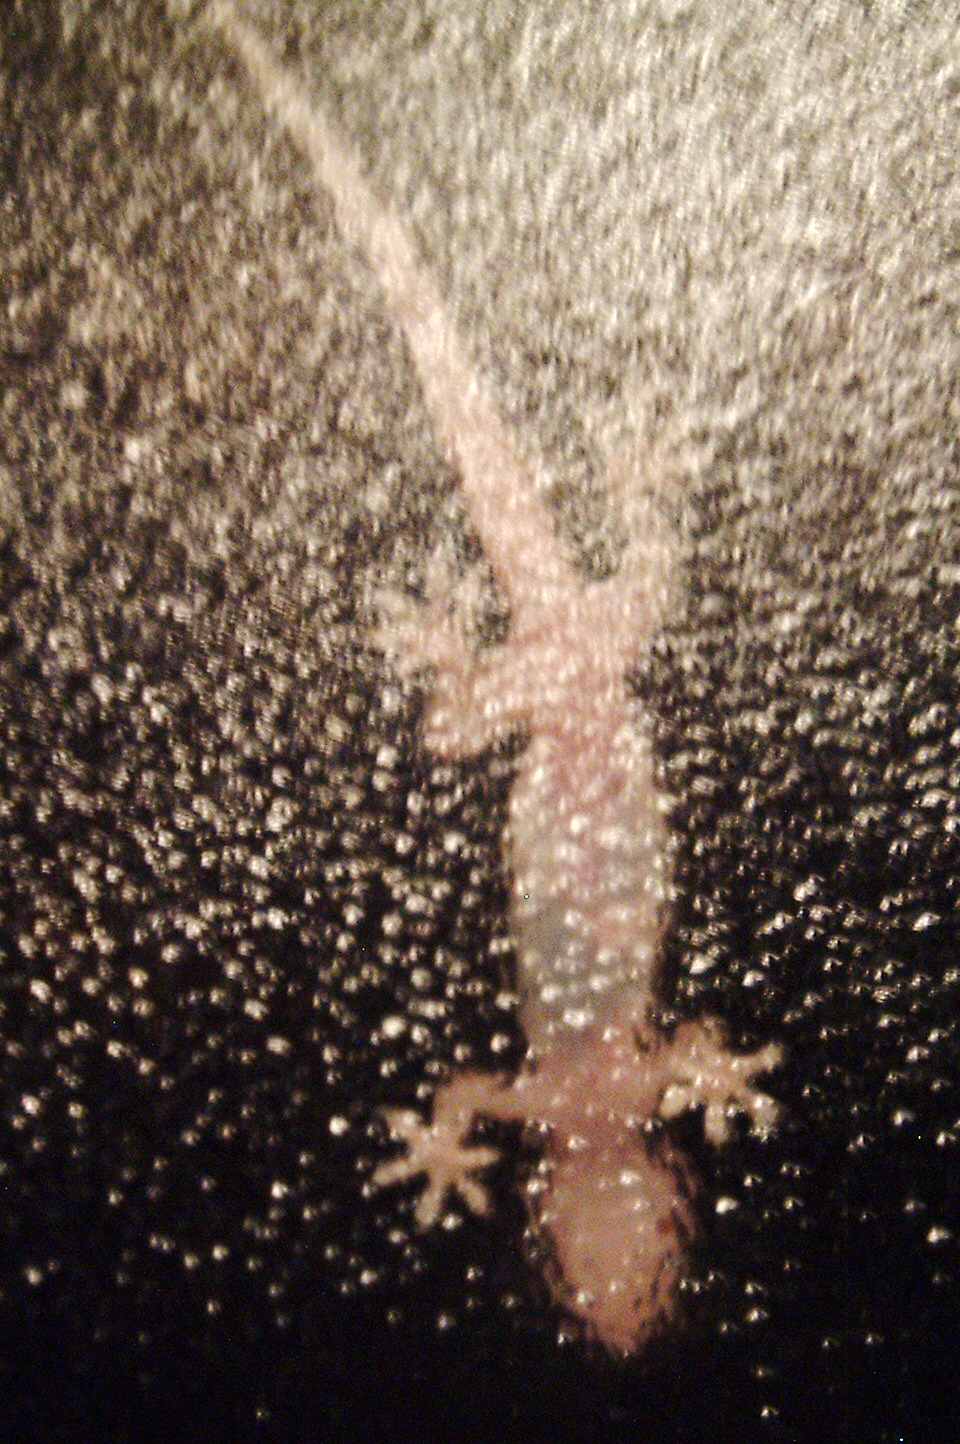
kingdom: Animalia
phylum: Chordata
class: Squamata
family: Gekkonidae
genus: Hemidactylus
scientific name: Hemidactylus turcicus
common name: Turkish gecko
